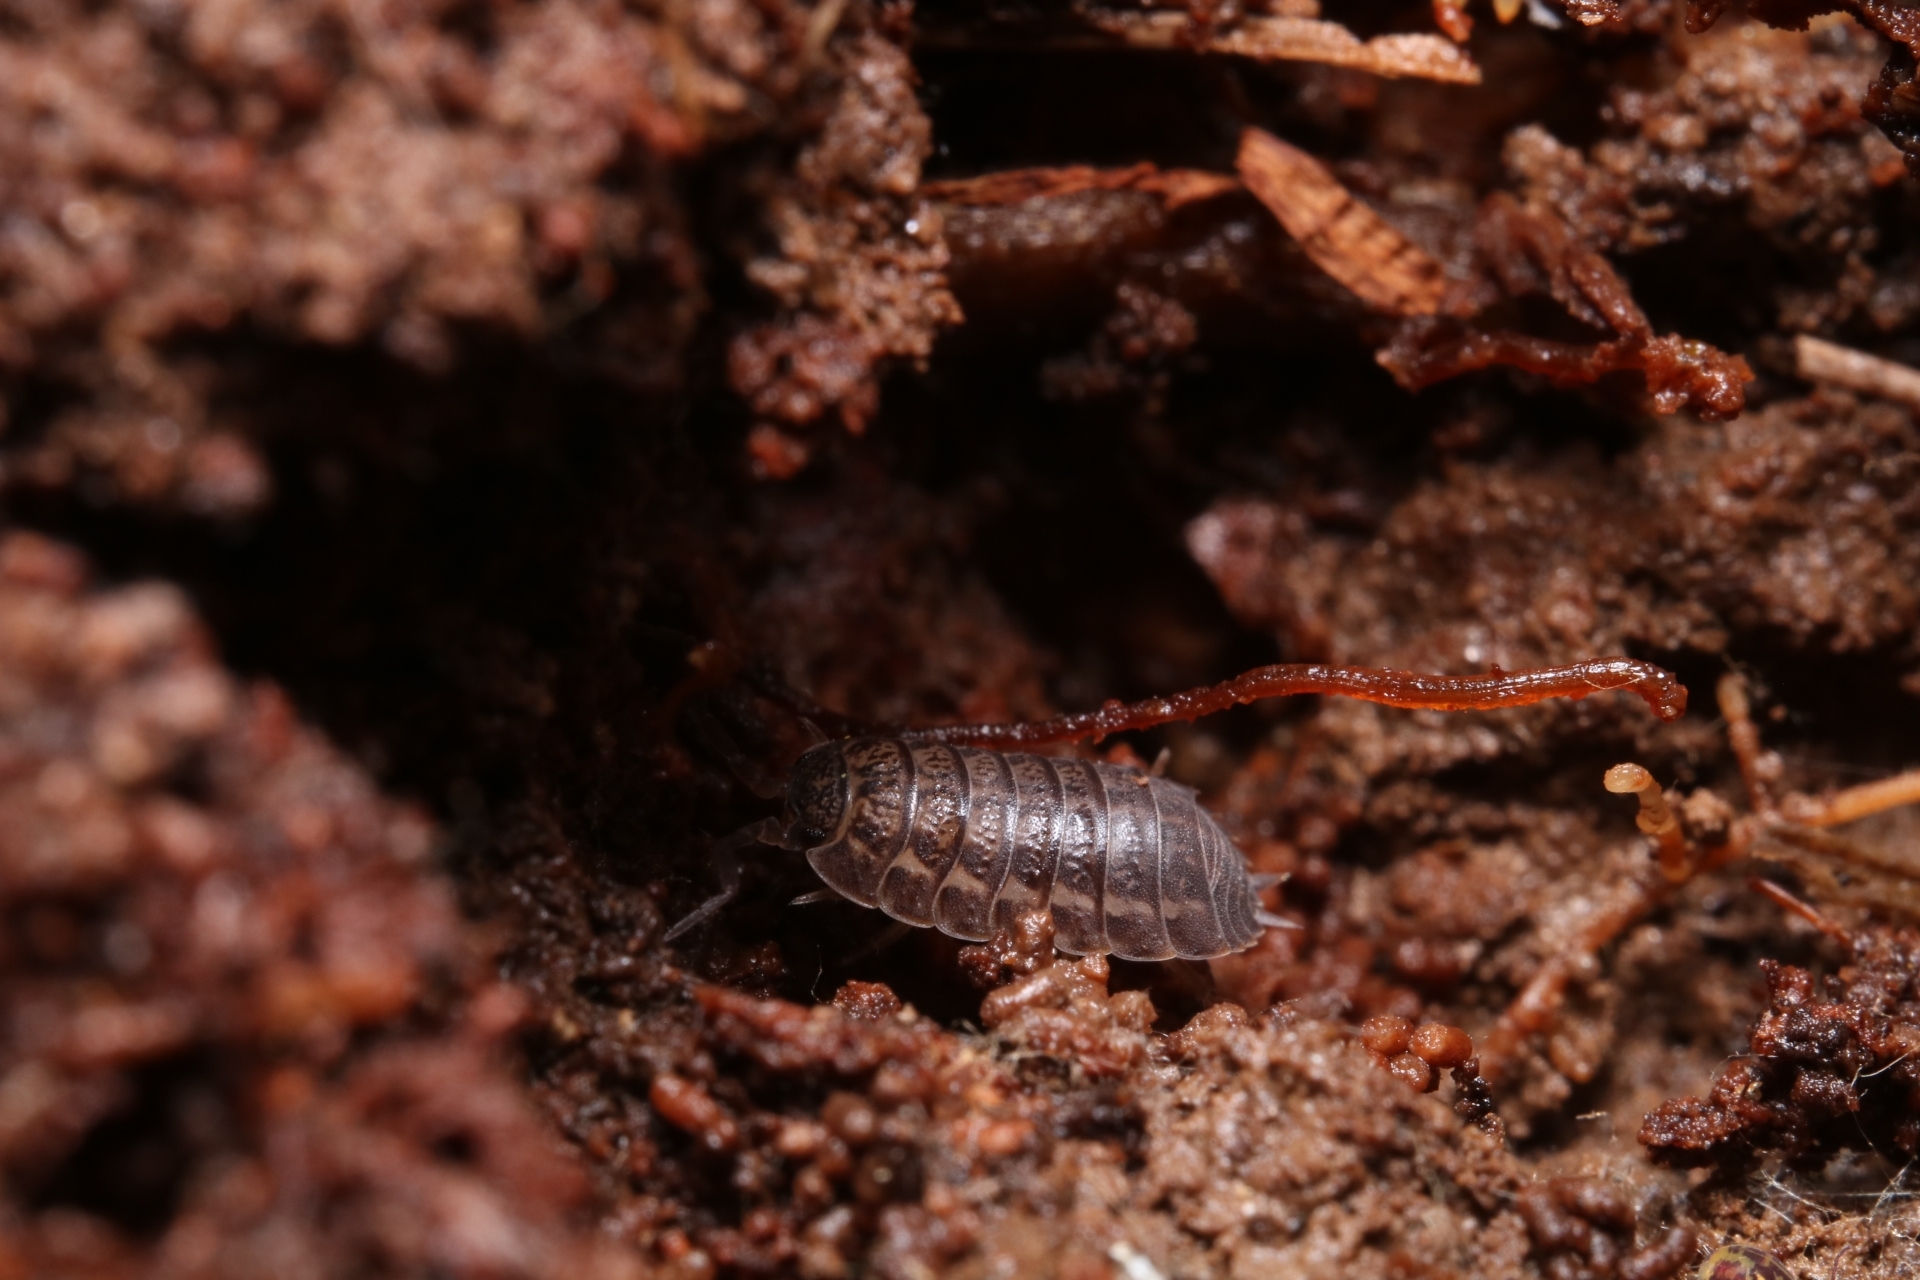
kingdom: Animalia
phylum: Arthropoda
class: Malacostraca
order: Isopoda
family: Trachelipodidae
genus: Trachelipus
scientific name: Trachelipus rathkii
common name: Isopod
